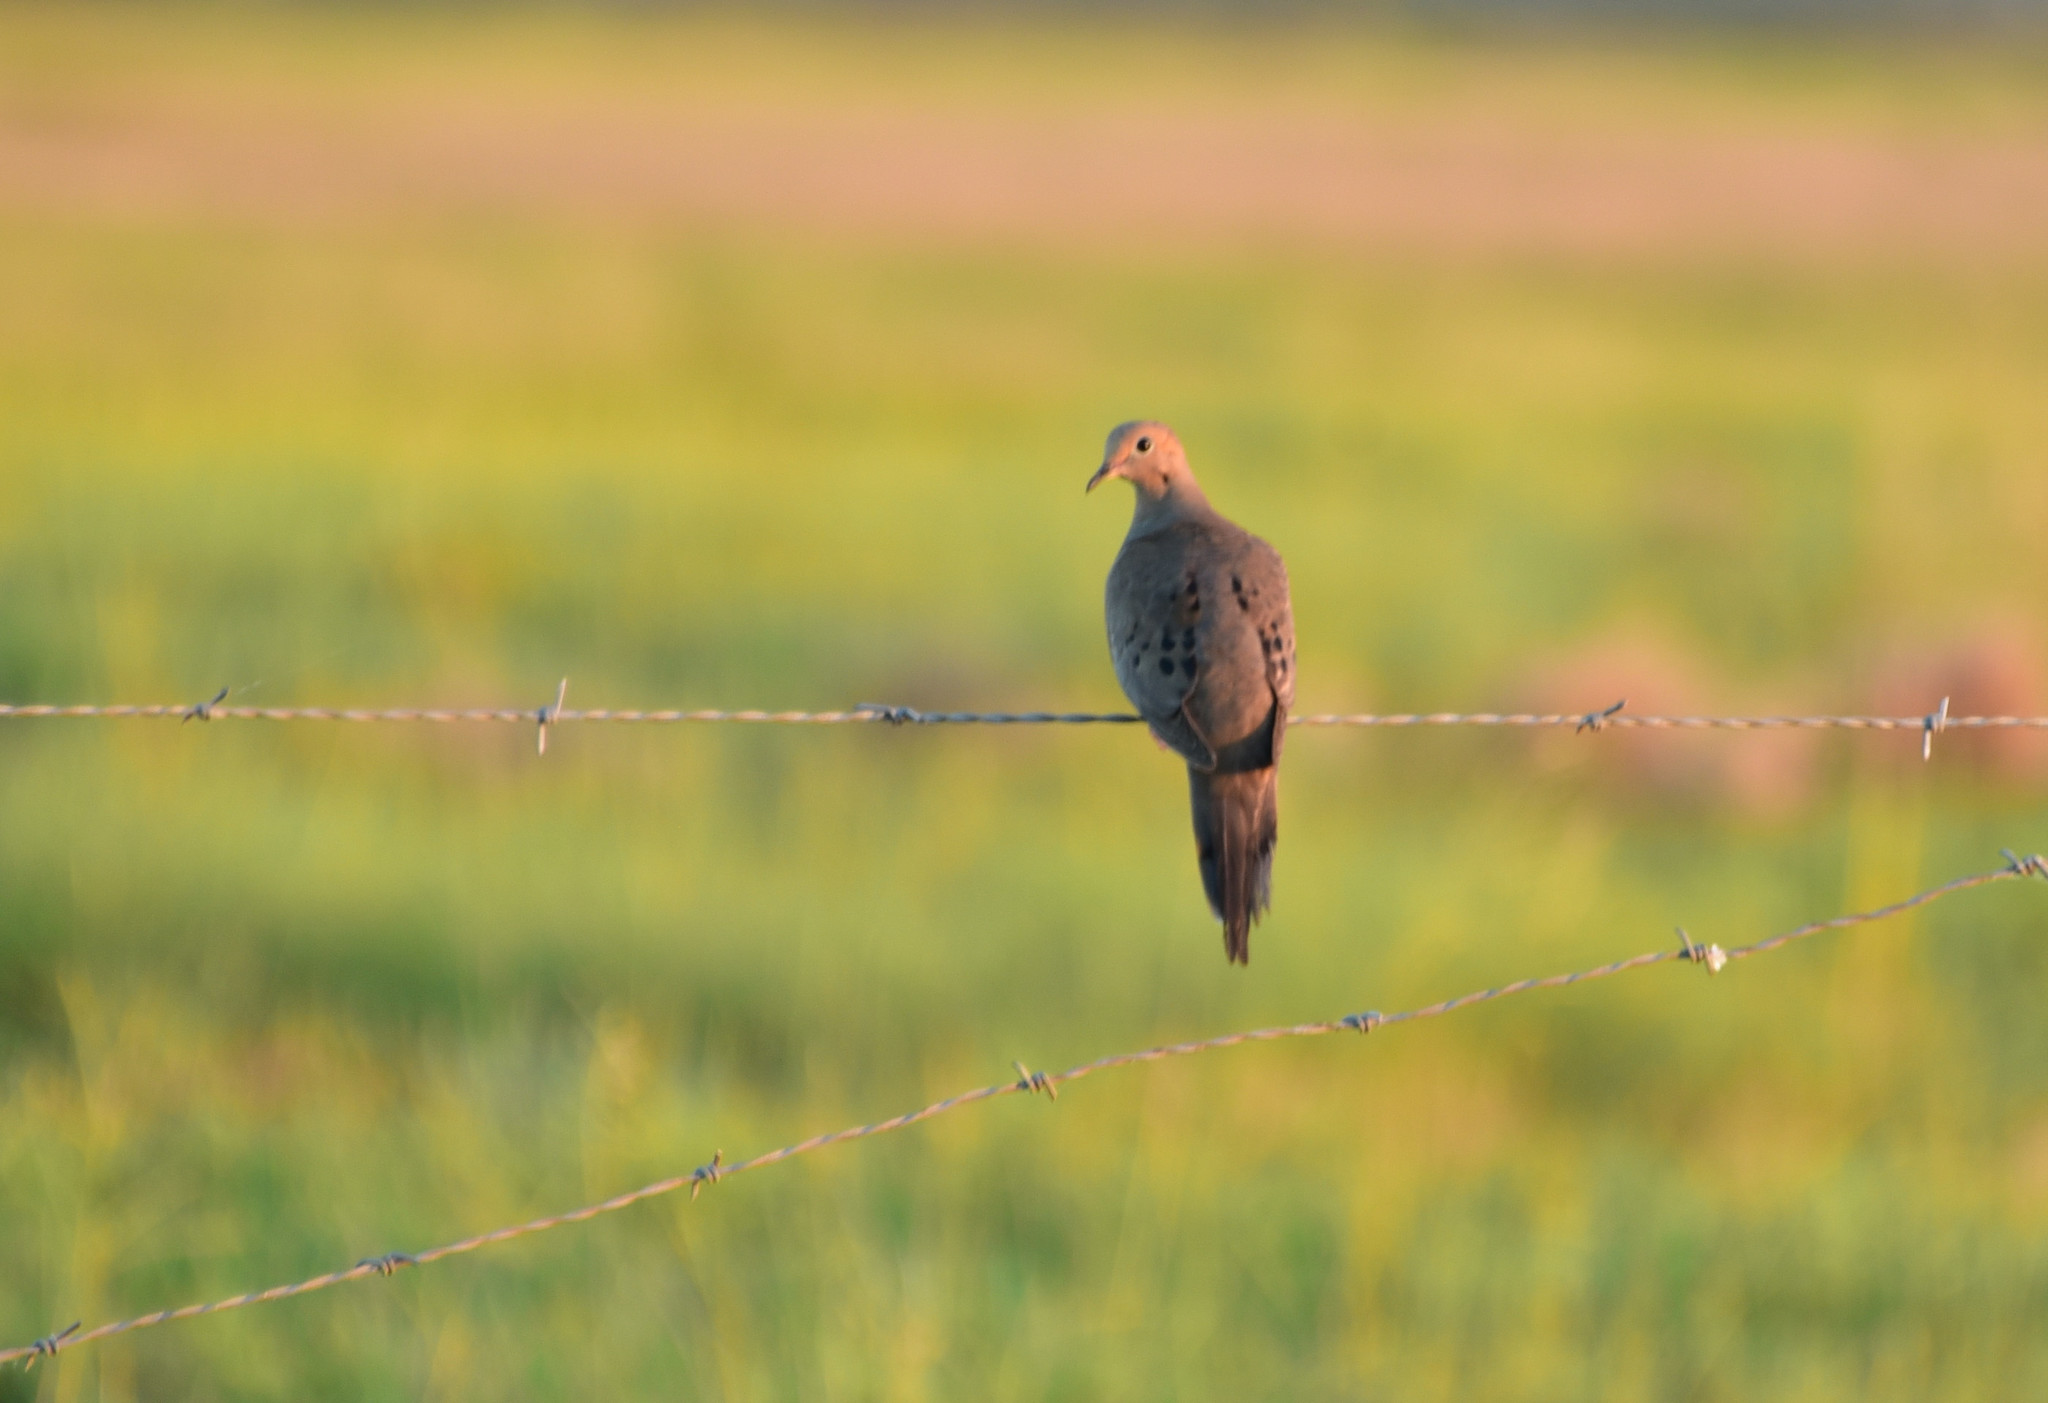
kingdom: Animalia
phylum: Chordata
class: Aves
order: Columbiformes
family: Columbidae
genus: Zenaida
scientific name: Zenaida macroura
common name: Mourning dove
